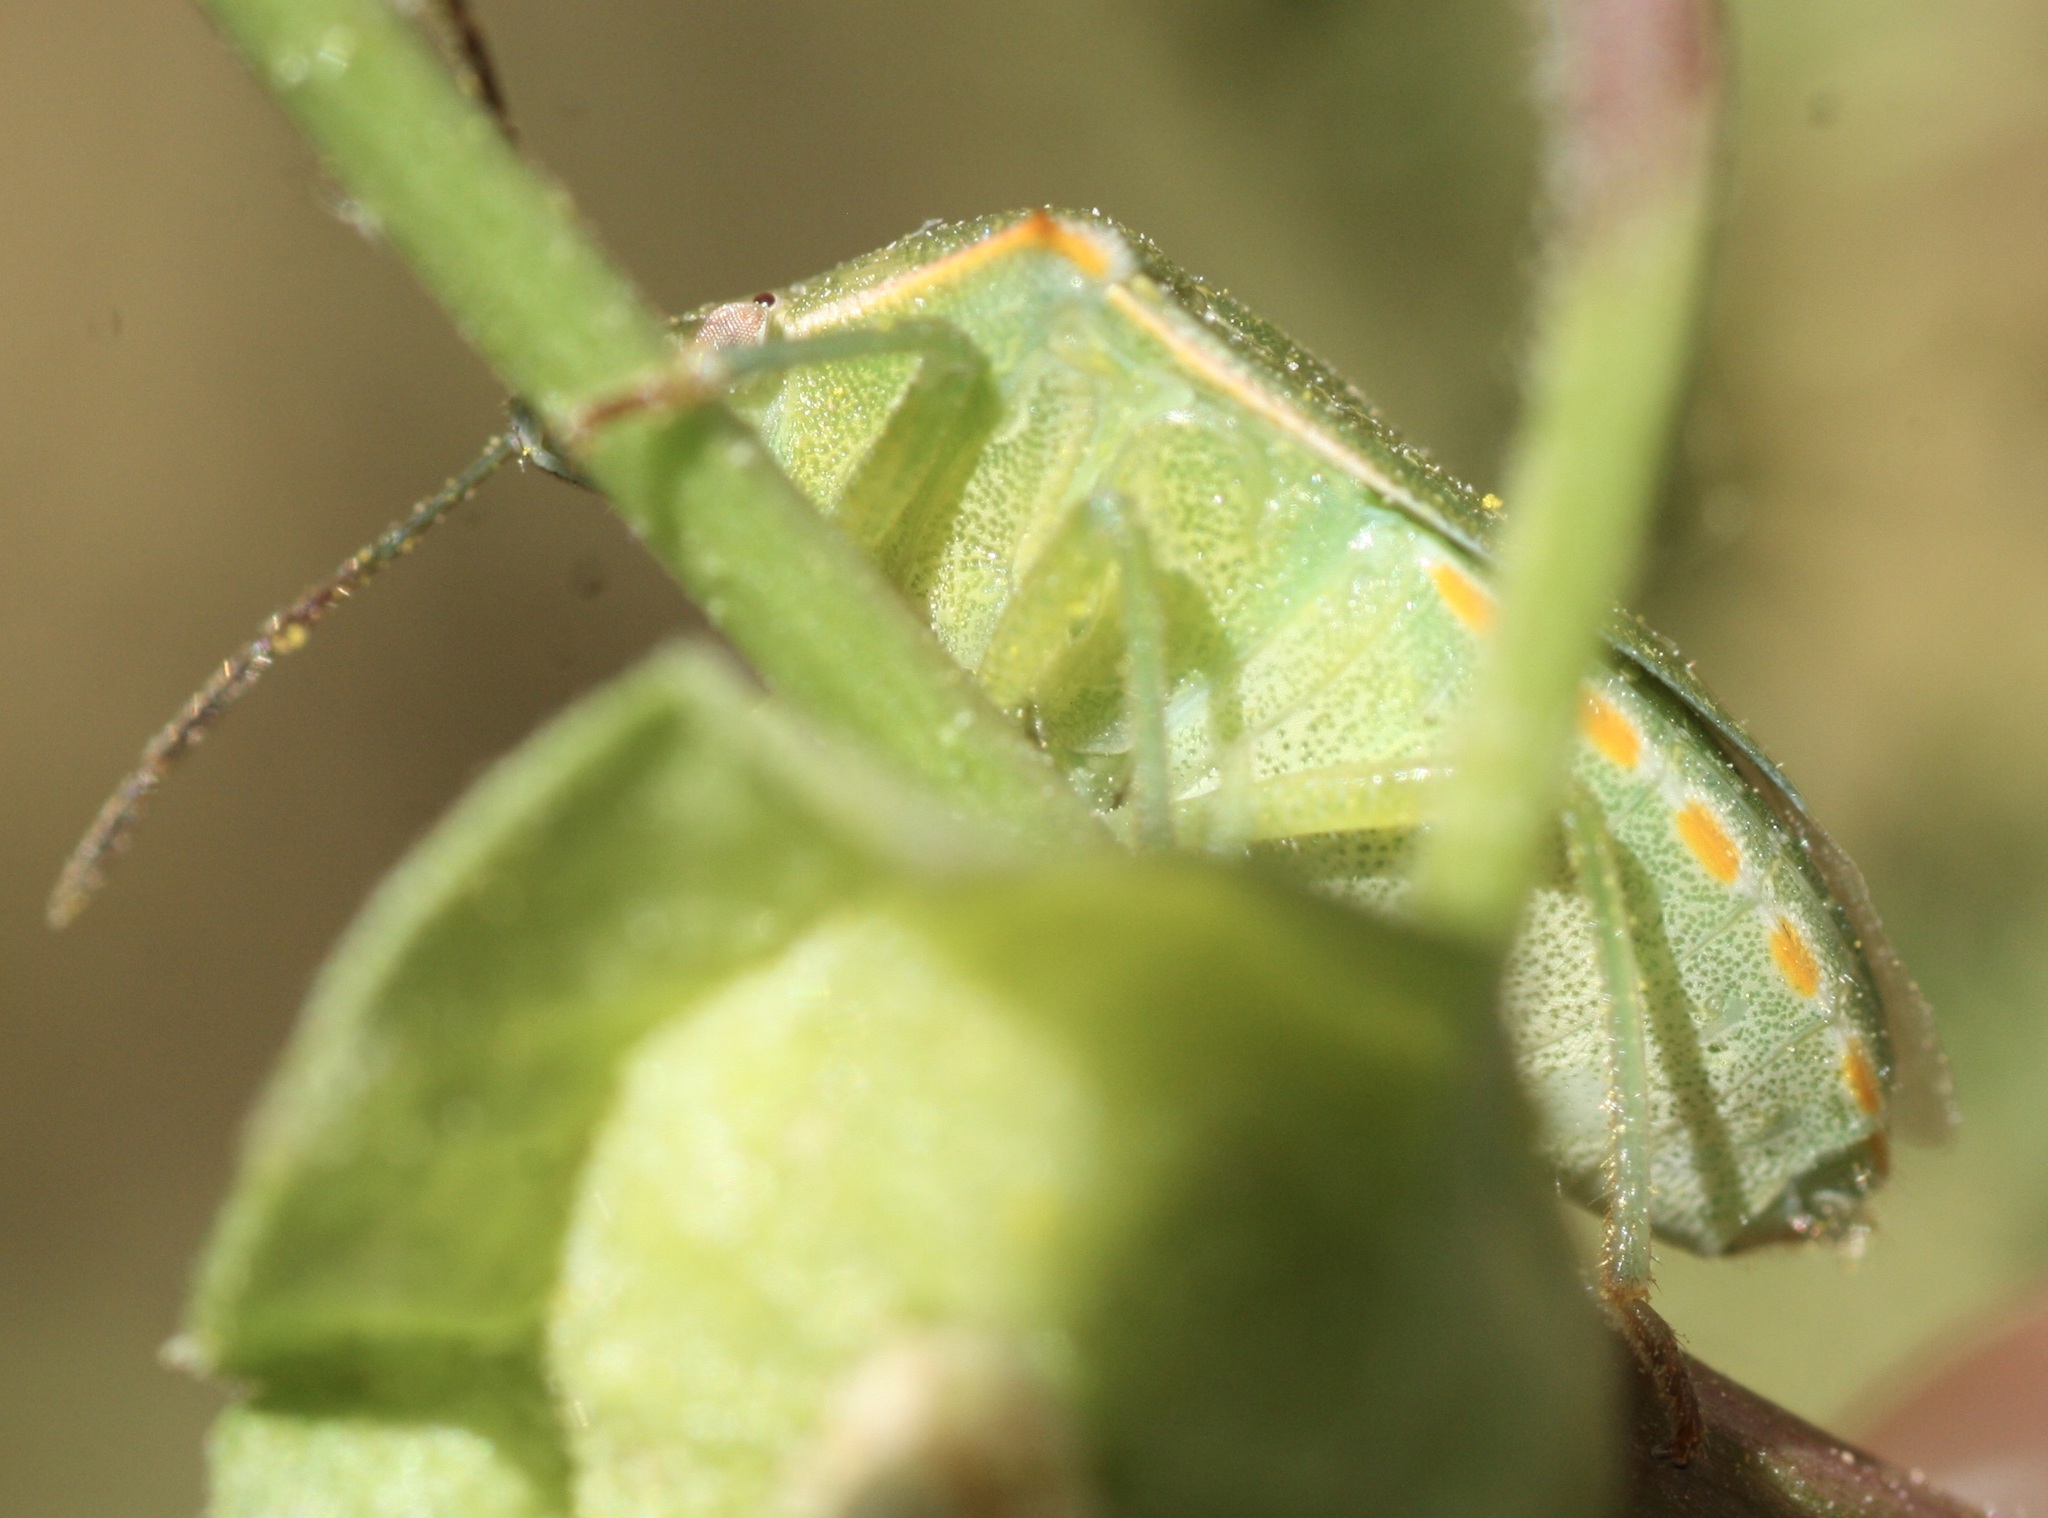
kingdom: Animalia
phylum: Arthropoda
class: Insecta
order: Hemiptera
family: Pentatomidae
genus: Thyanta
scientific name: Thyanta accerra
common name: Stink bug
